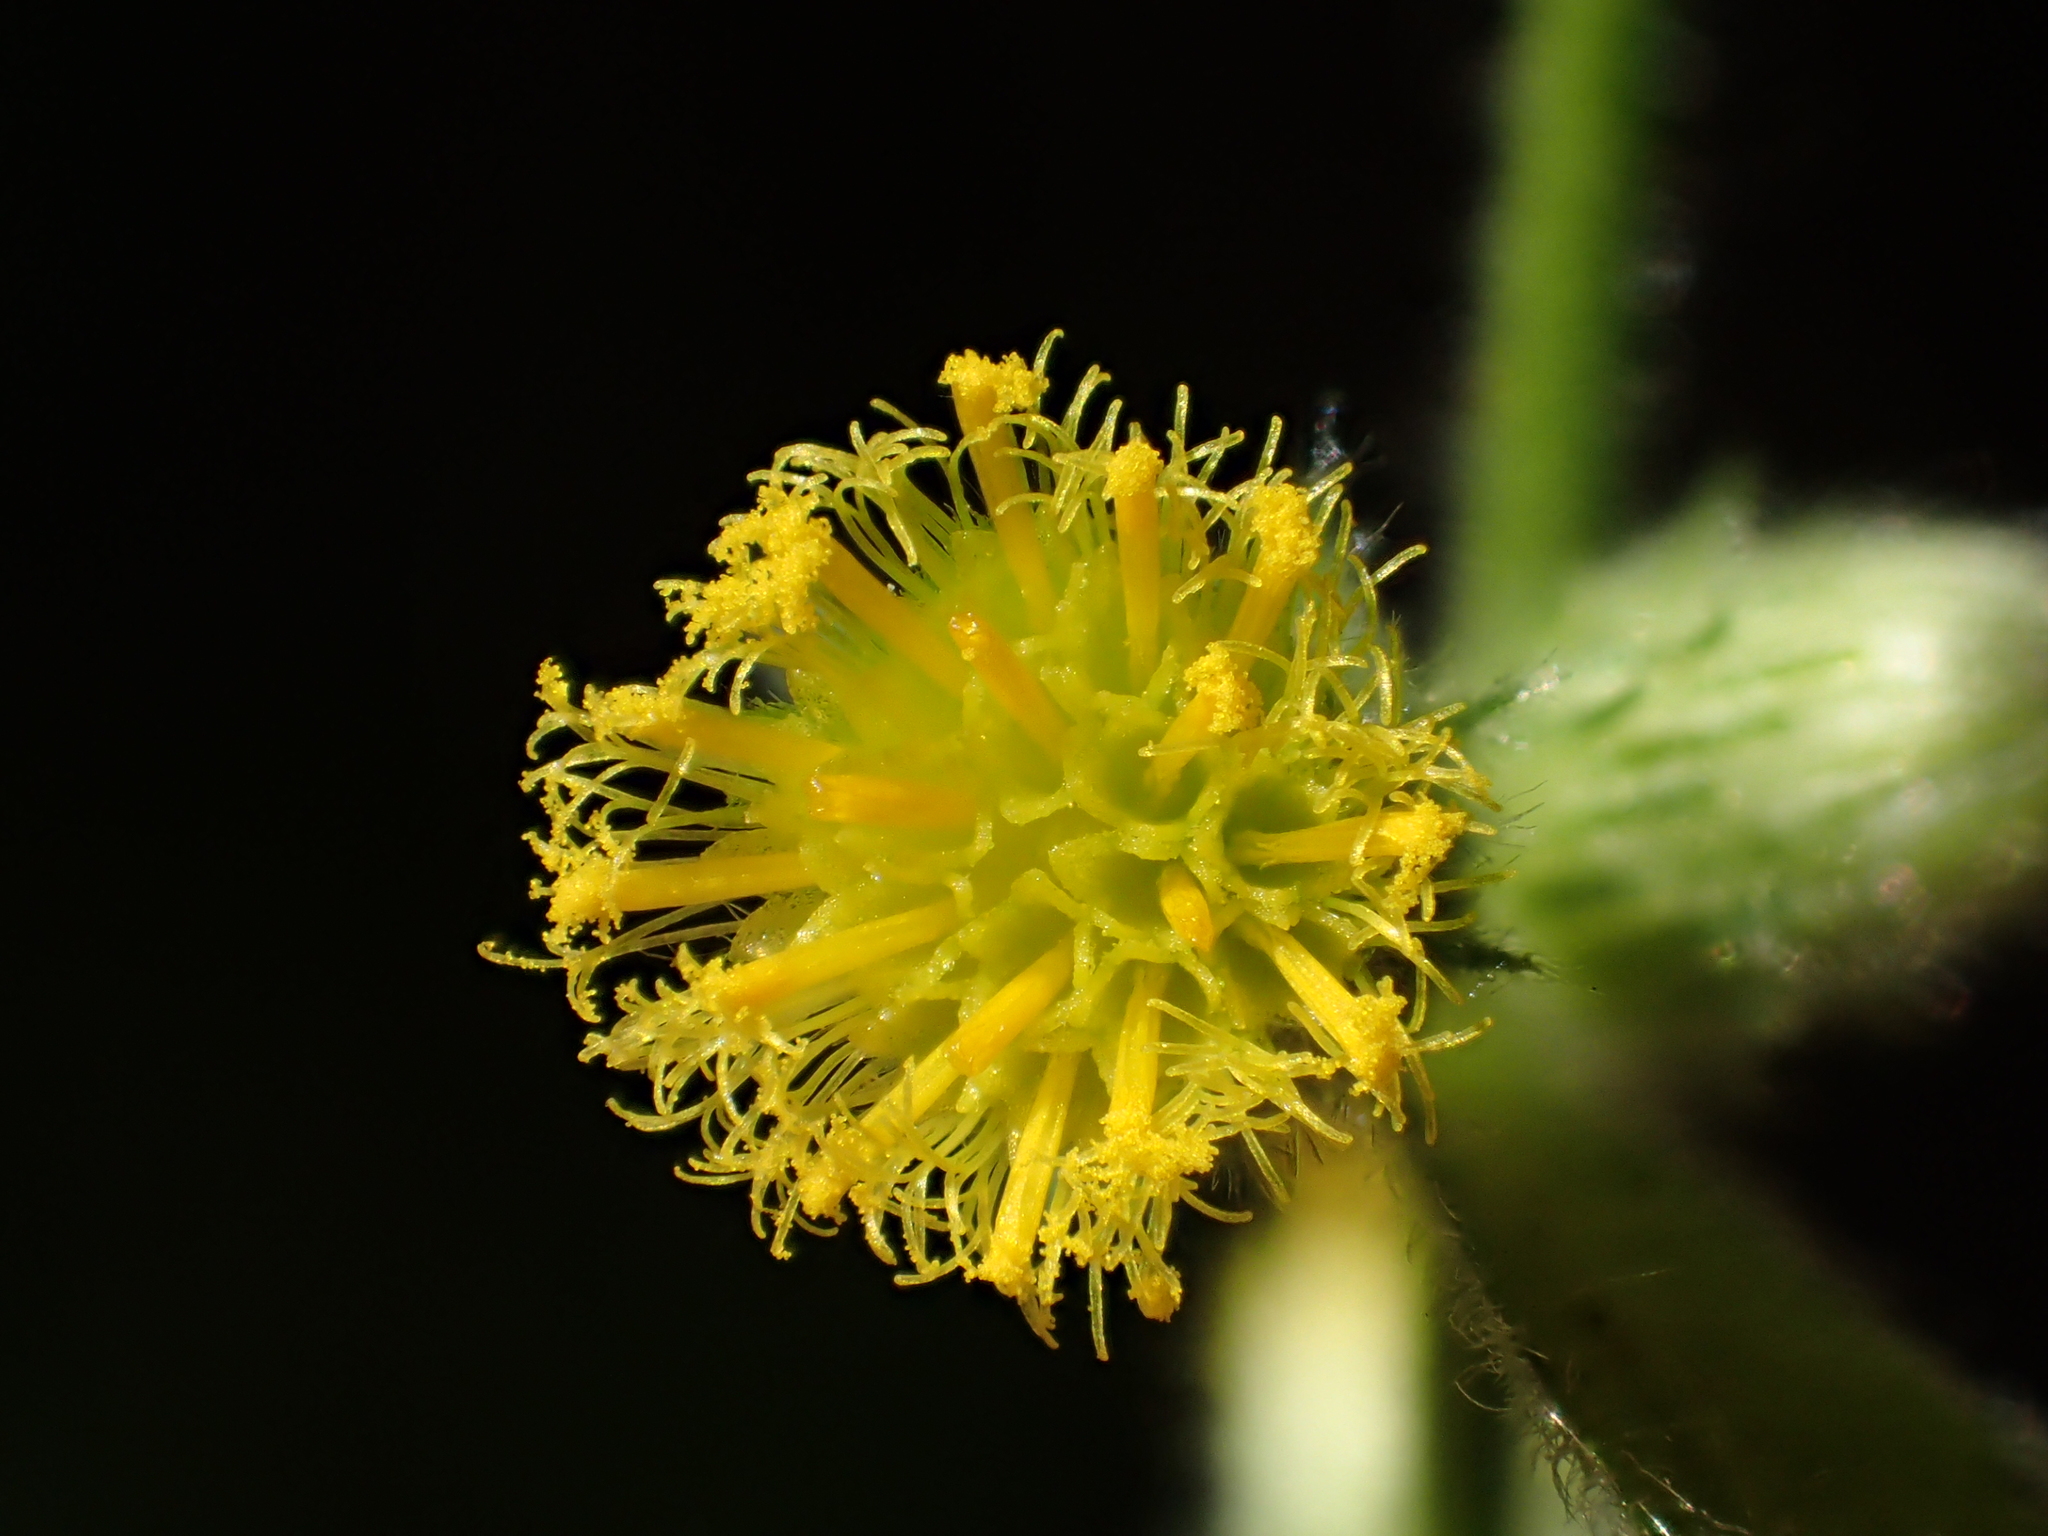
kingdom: Plantae
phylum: Tracheophyta
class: Magnoliopsida
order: Asterales
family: Asteraceae
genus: Blumea
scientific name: Blumea sinuata
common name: Cutleaf false oxtongue
